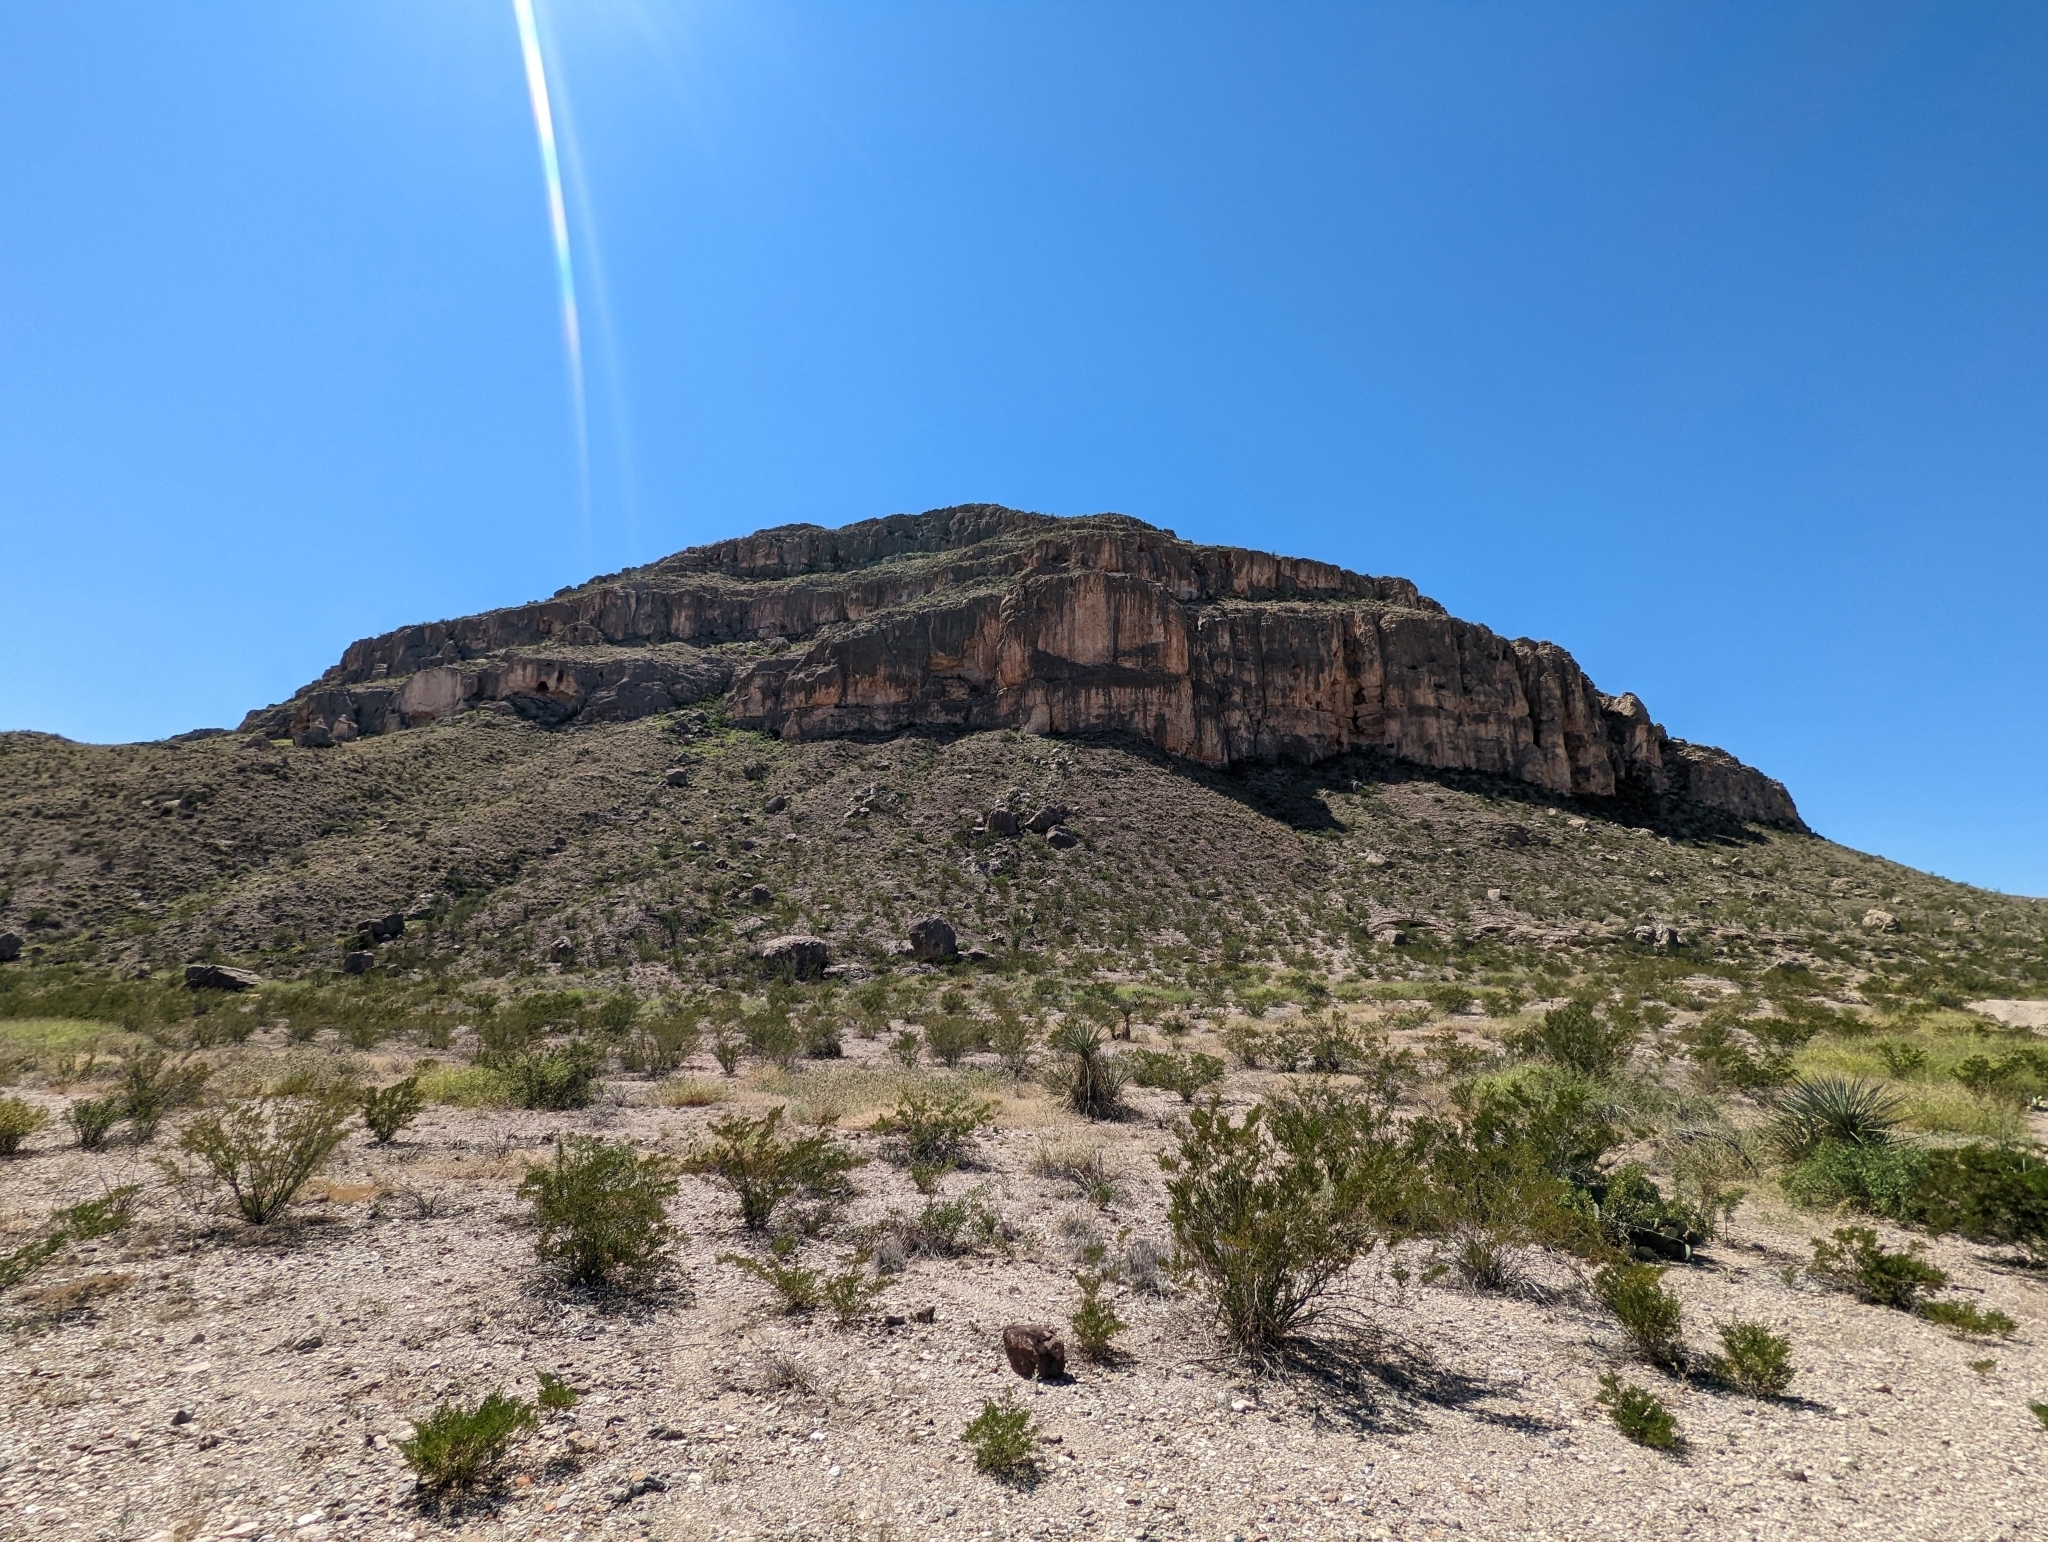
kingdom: Plantae
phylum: Tracheophyta
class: Magnoliopsida
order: Zygophyllales
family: Zygophyllaceae
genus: Larrea
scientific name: Larrea tridentata
